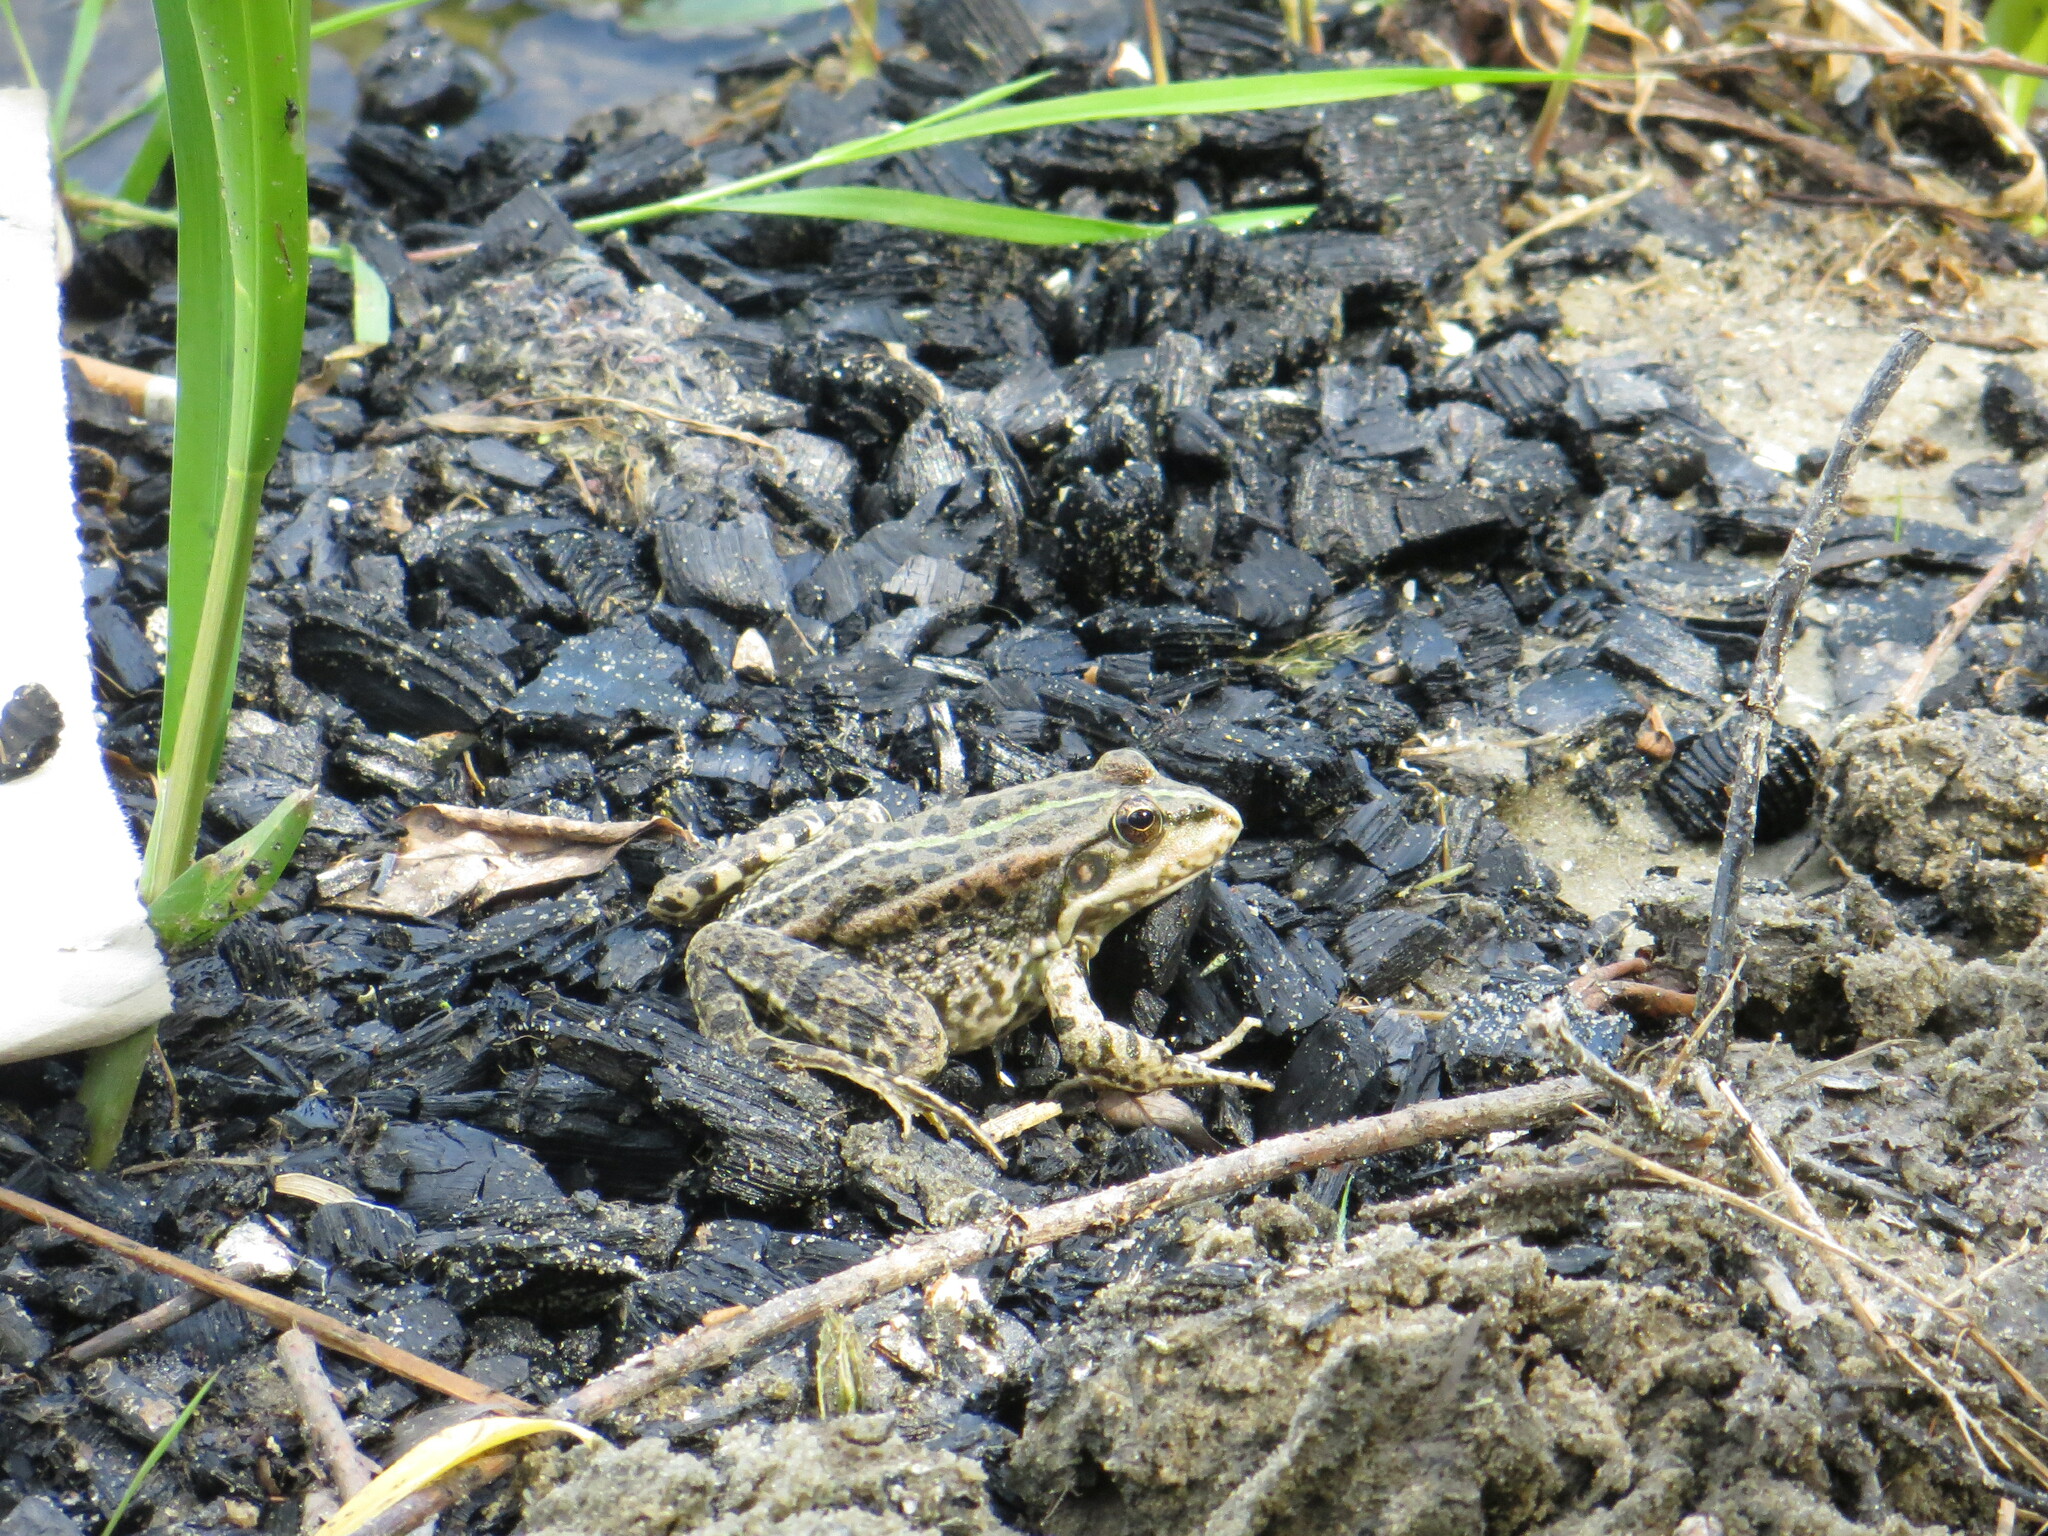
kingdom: Animalia
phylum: Chordata
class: Amphibia
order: Anura
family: Ranidae
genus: Pelophylax
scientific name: Pelophylax ridibundus
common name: Marsh frog
